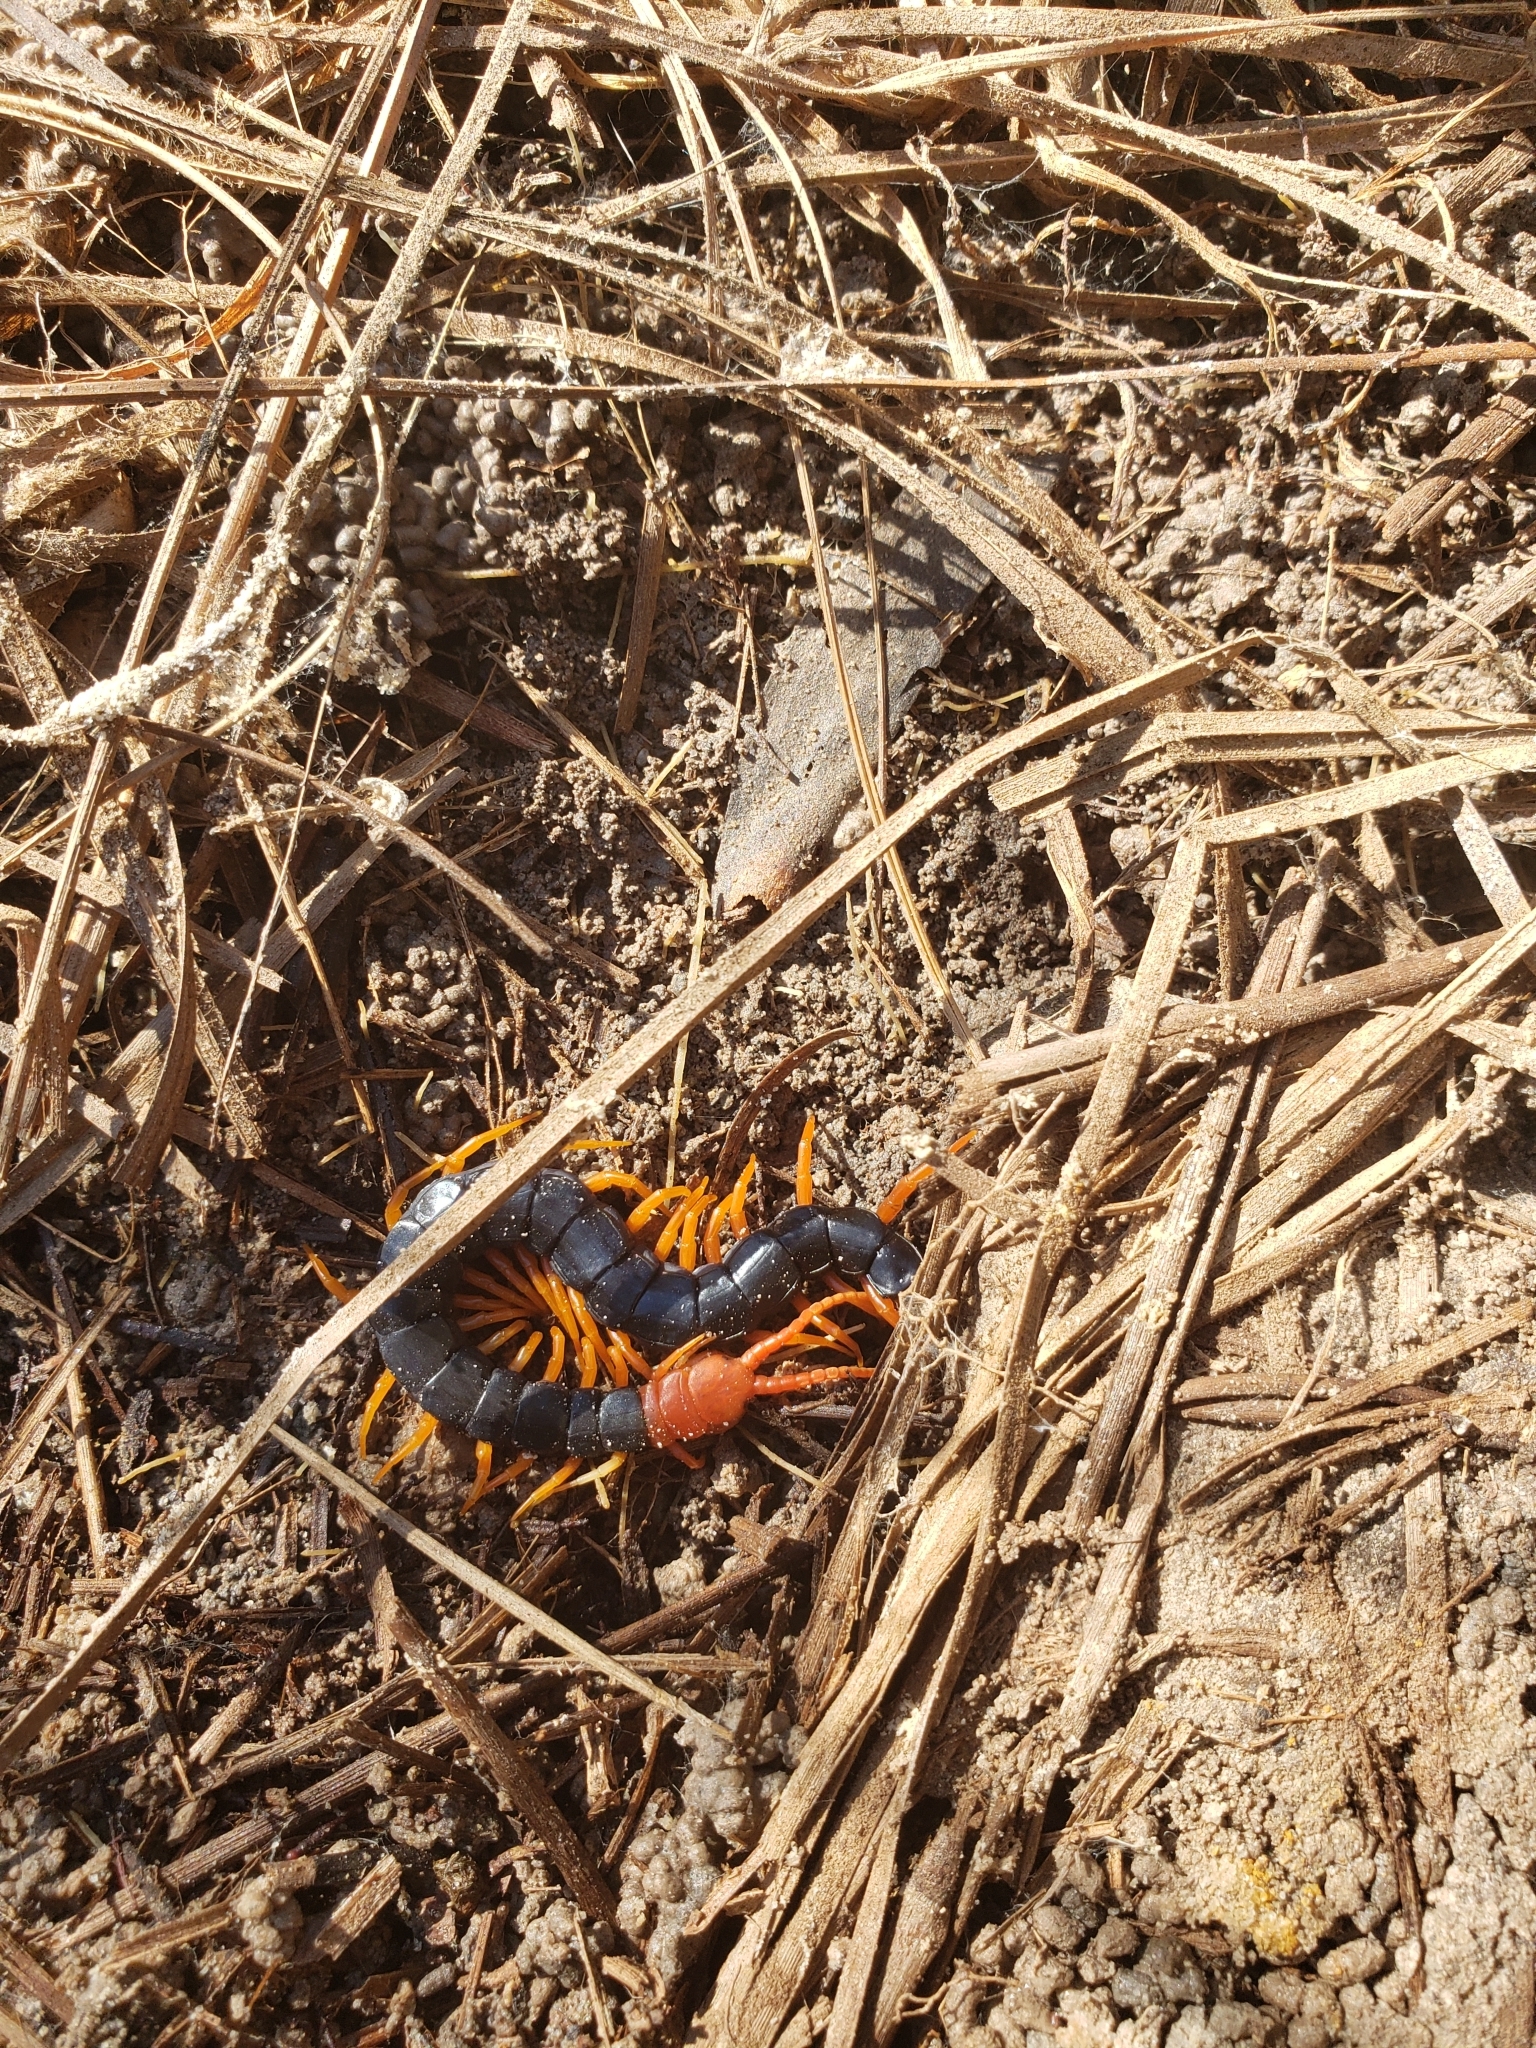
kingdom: Animalia
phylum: Arthropoda
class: Chilopoda
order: Scolopendromorpha
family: Scolopendridae
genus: Scolopendra
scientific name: Scolopendra heros
